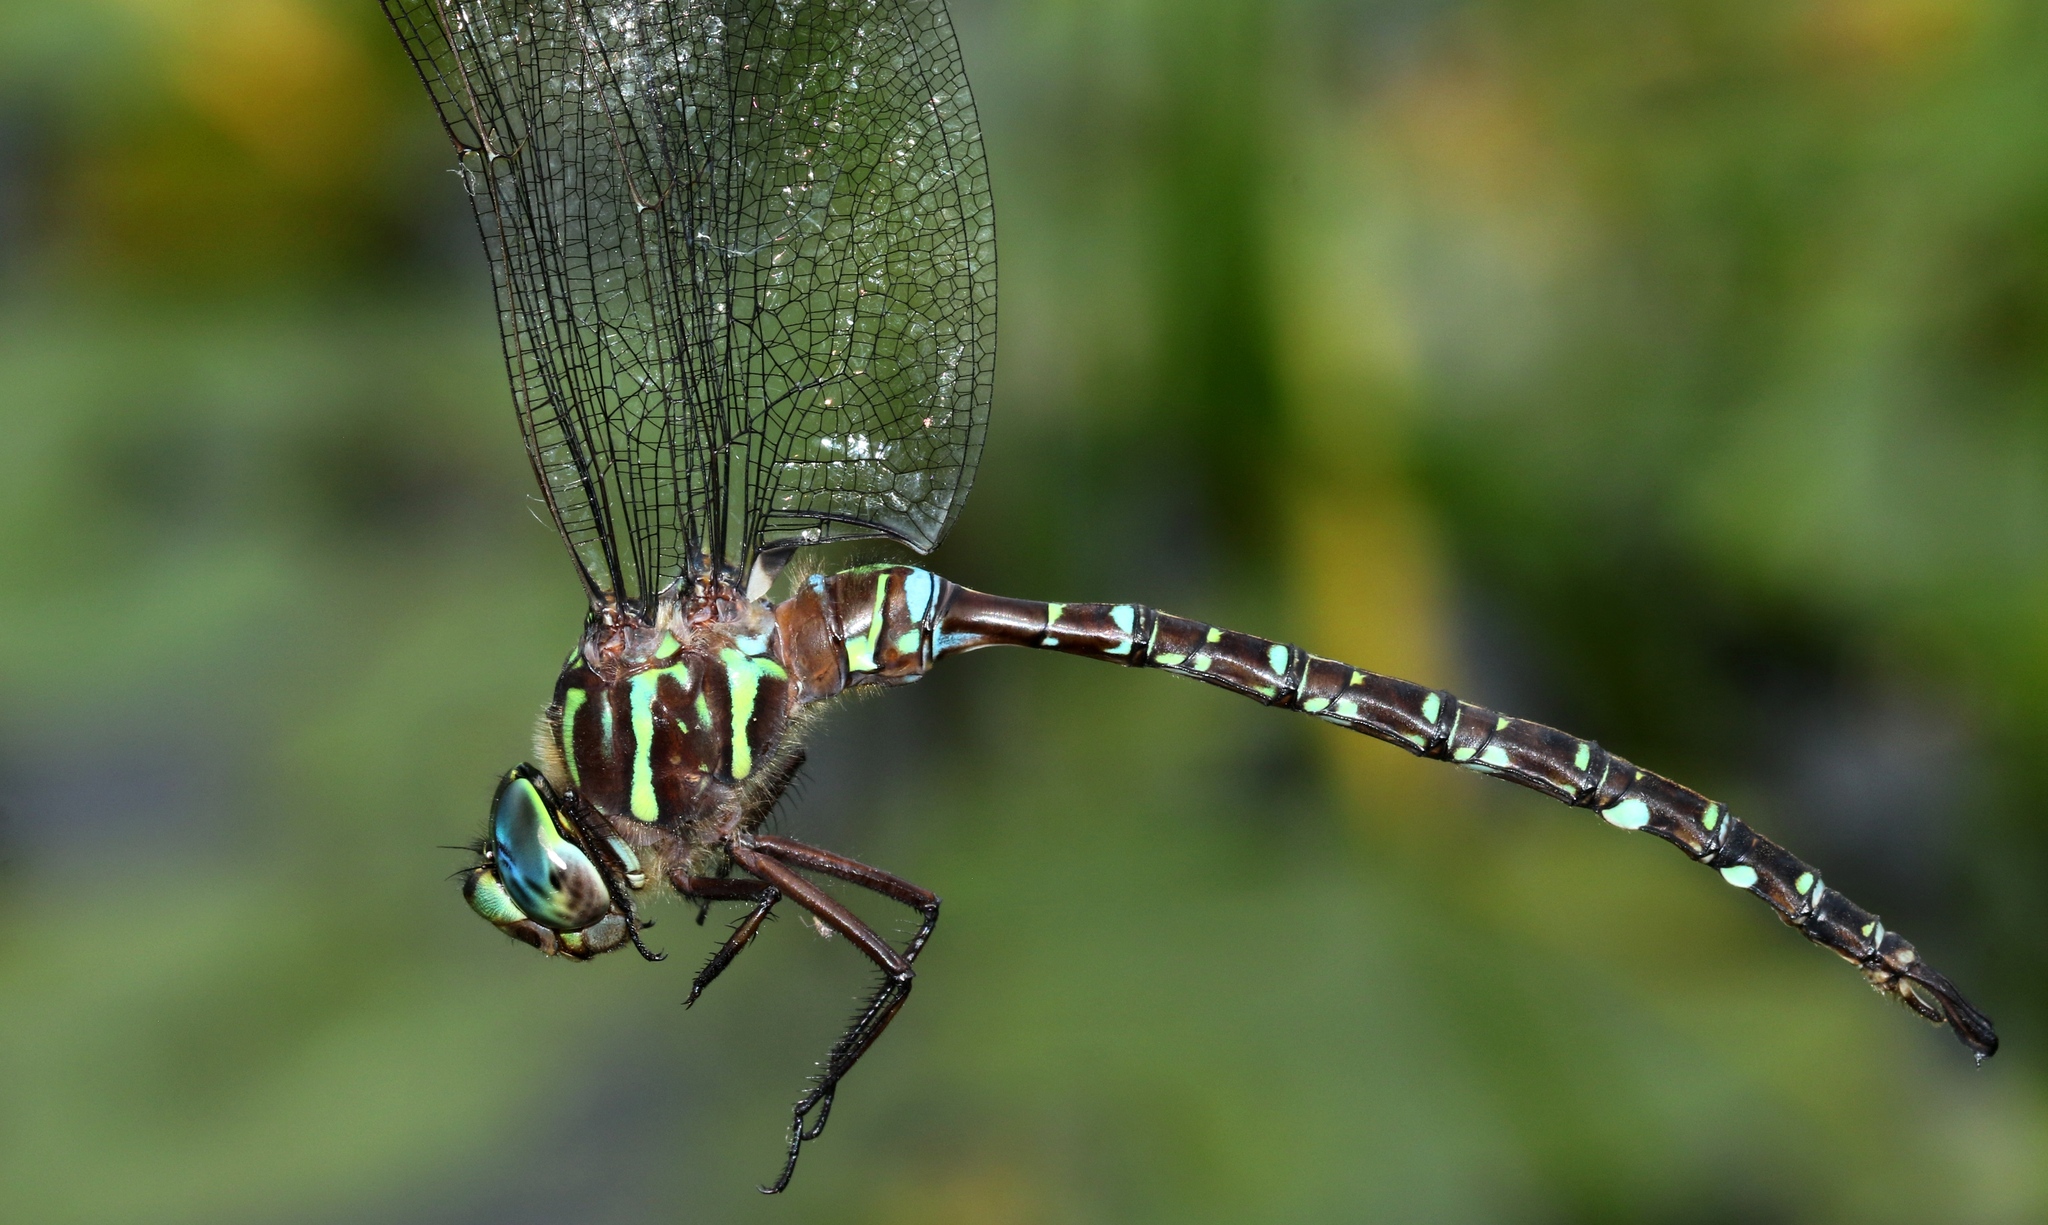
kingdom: Animalia
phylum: Arthropoda
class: Insecta
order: Odonata
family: Aeshnidae
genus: Aeshna
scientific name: Aeshna umbrosa
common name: Shadow darner
